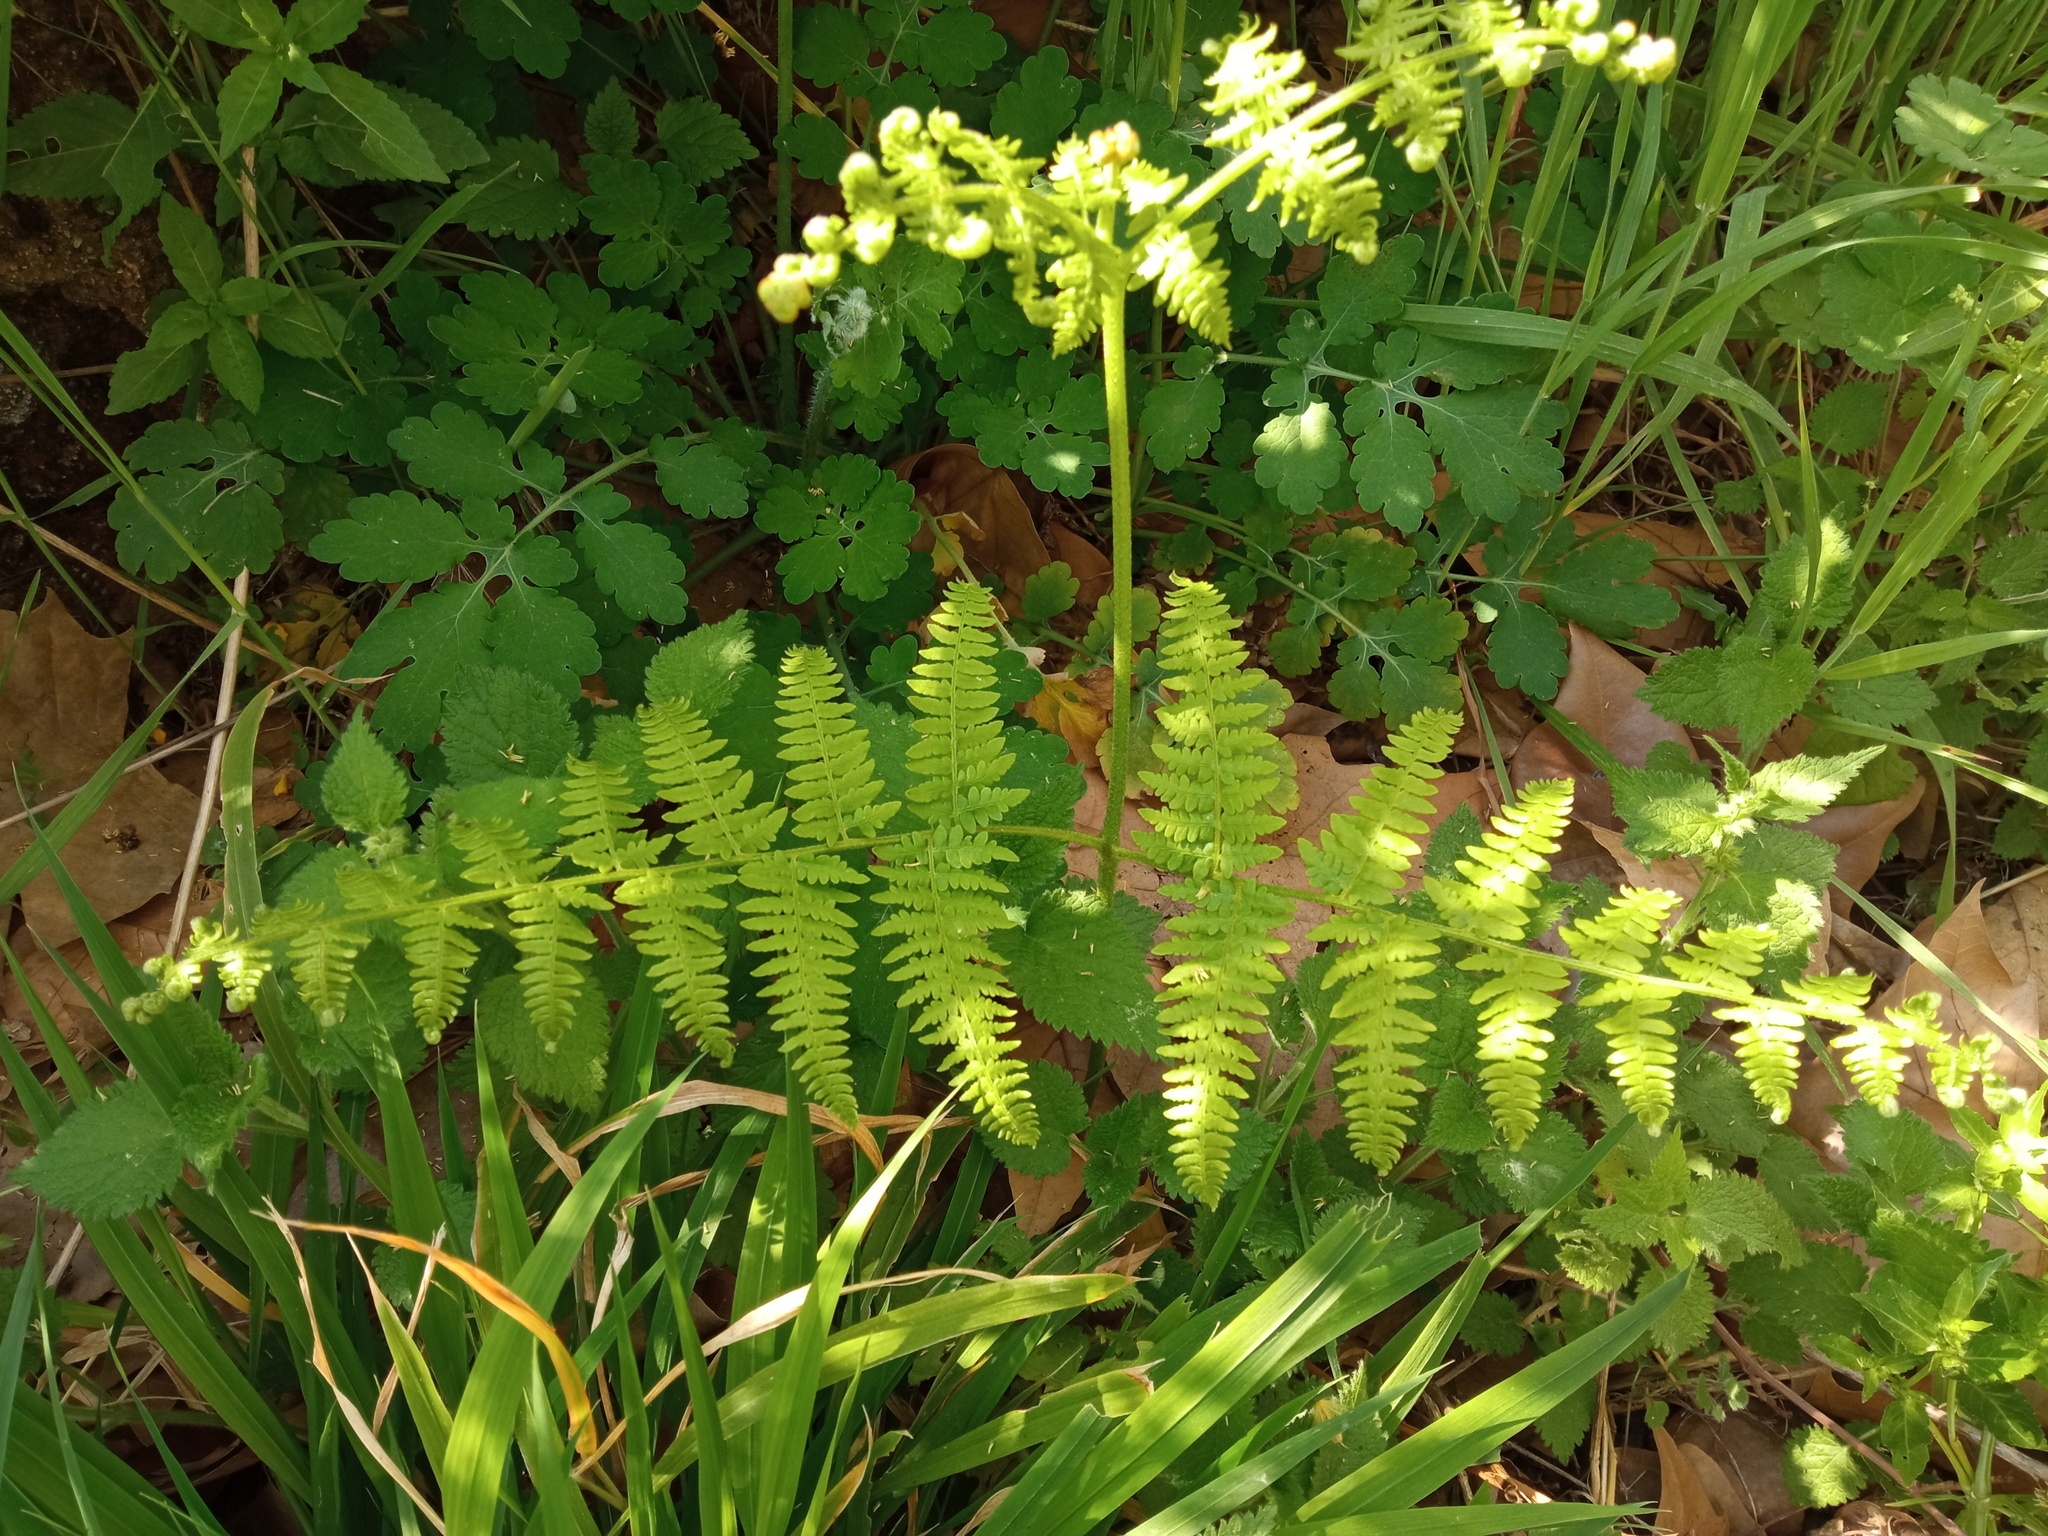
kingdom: Plantae
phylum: Tracheophyta
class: Polypodiopsida
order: Polypodiales
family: Dennstaedtiaceae
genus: Pteridium
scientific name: Pteridium aquilinum
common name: Bracken
